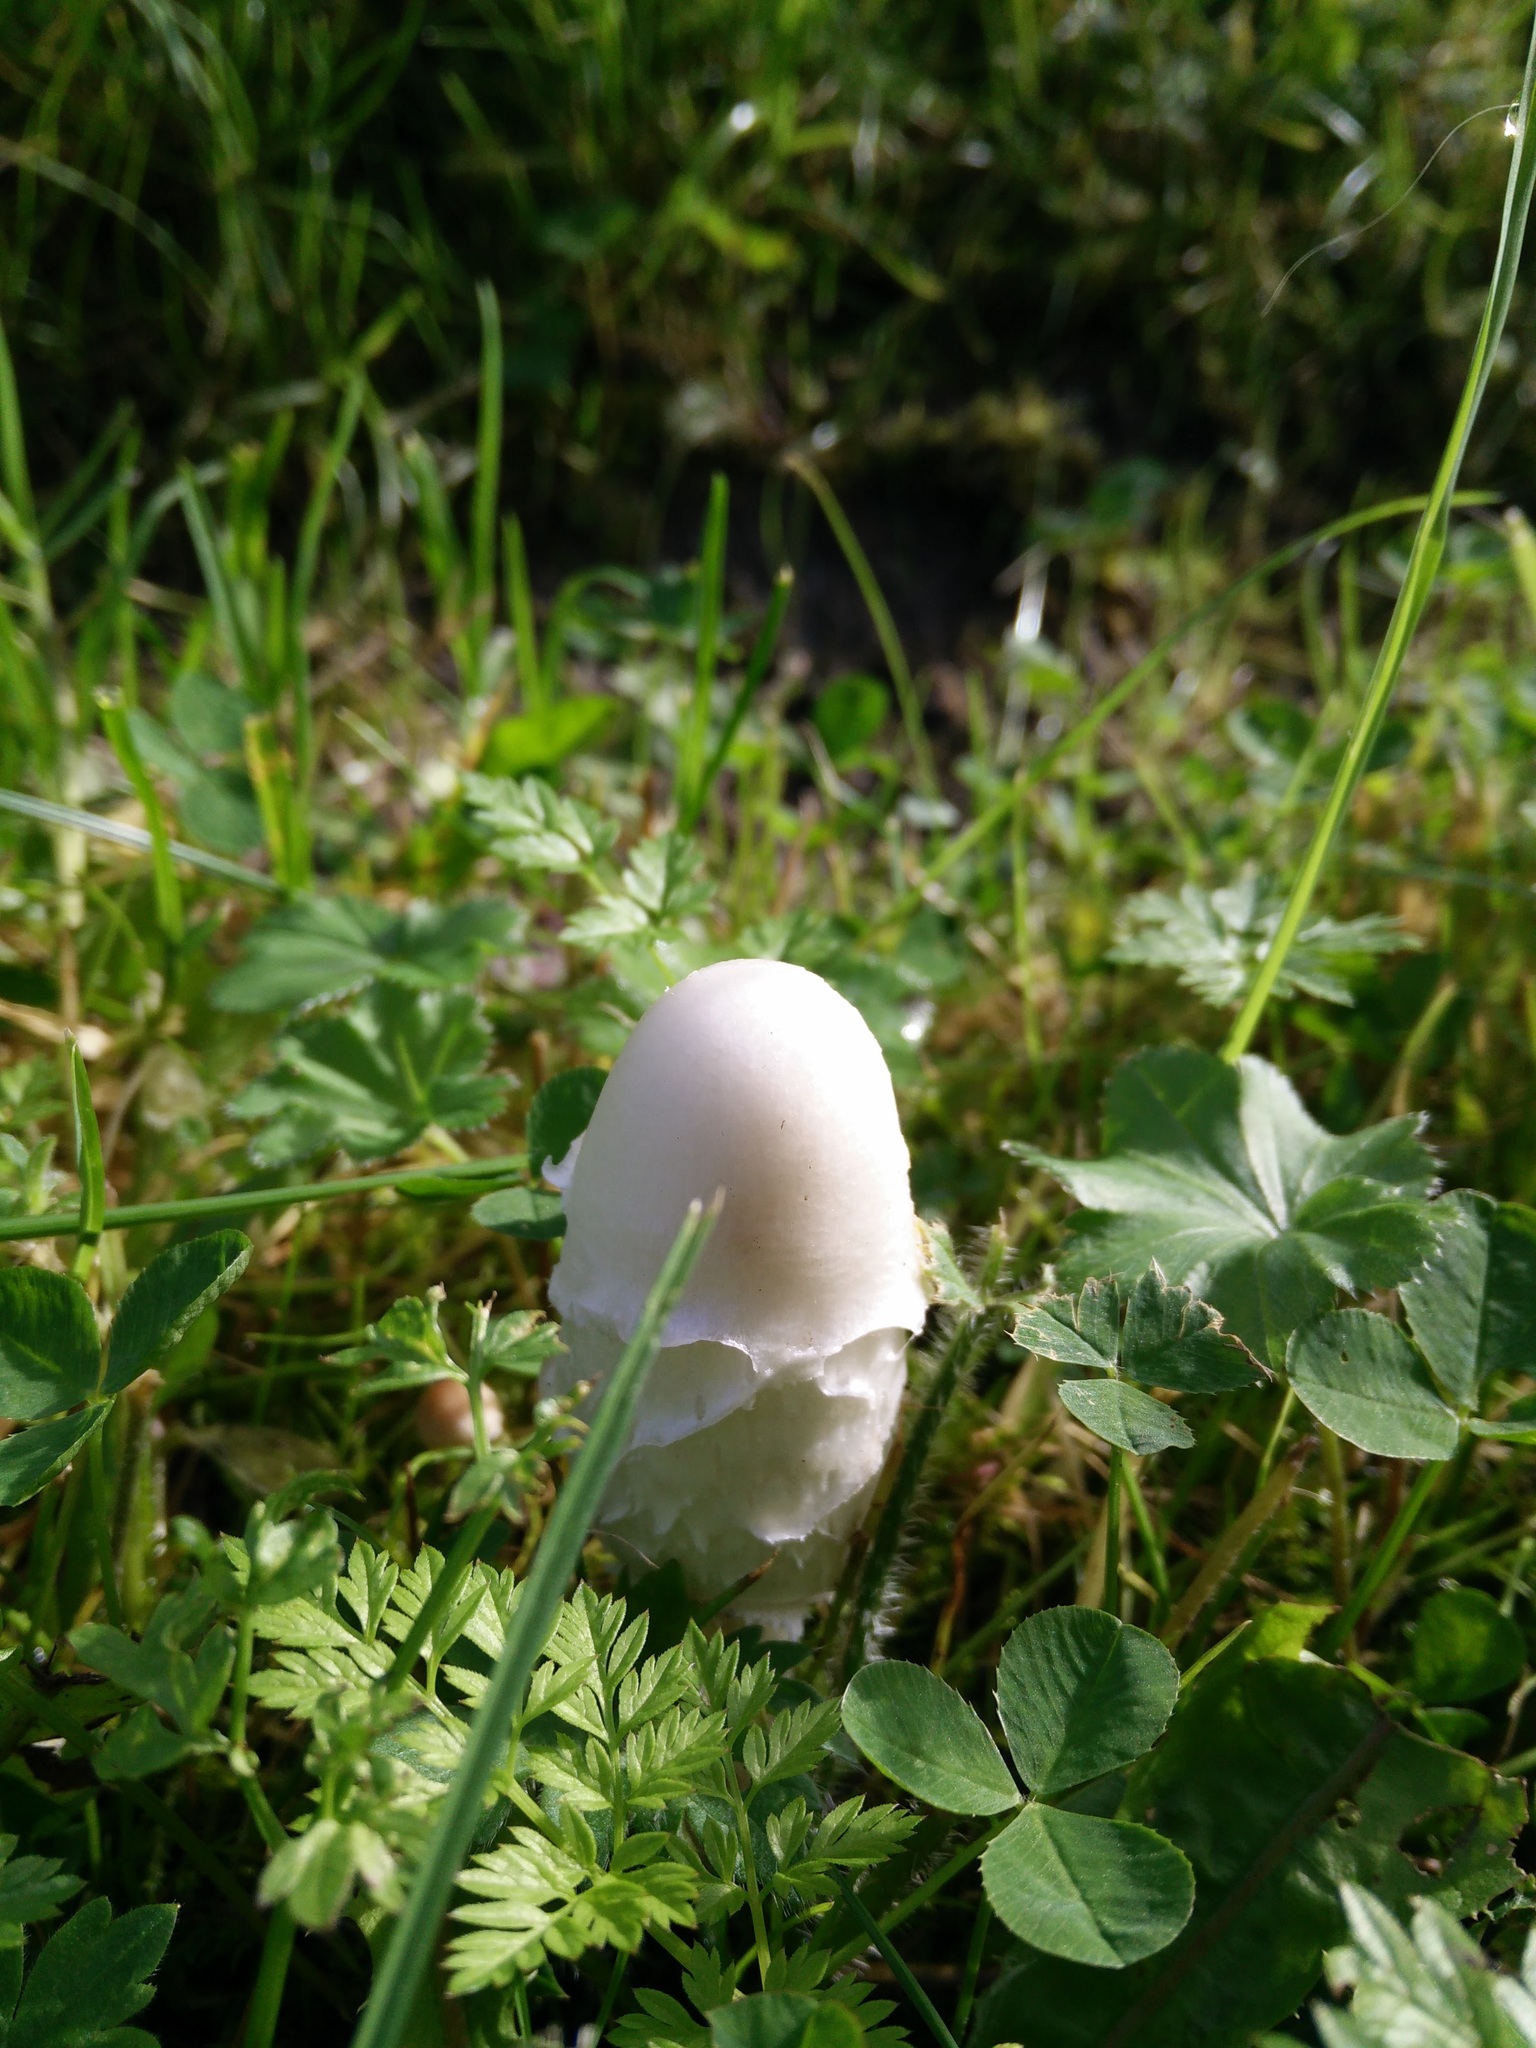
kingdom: Fungi
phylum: Basidiomycota
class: Agaricomycetes
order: Agaricales
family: Agaricaceae
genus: Coprinus
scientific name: Coprinus comatus
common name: Lawyer's wig
